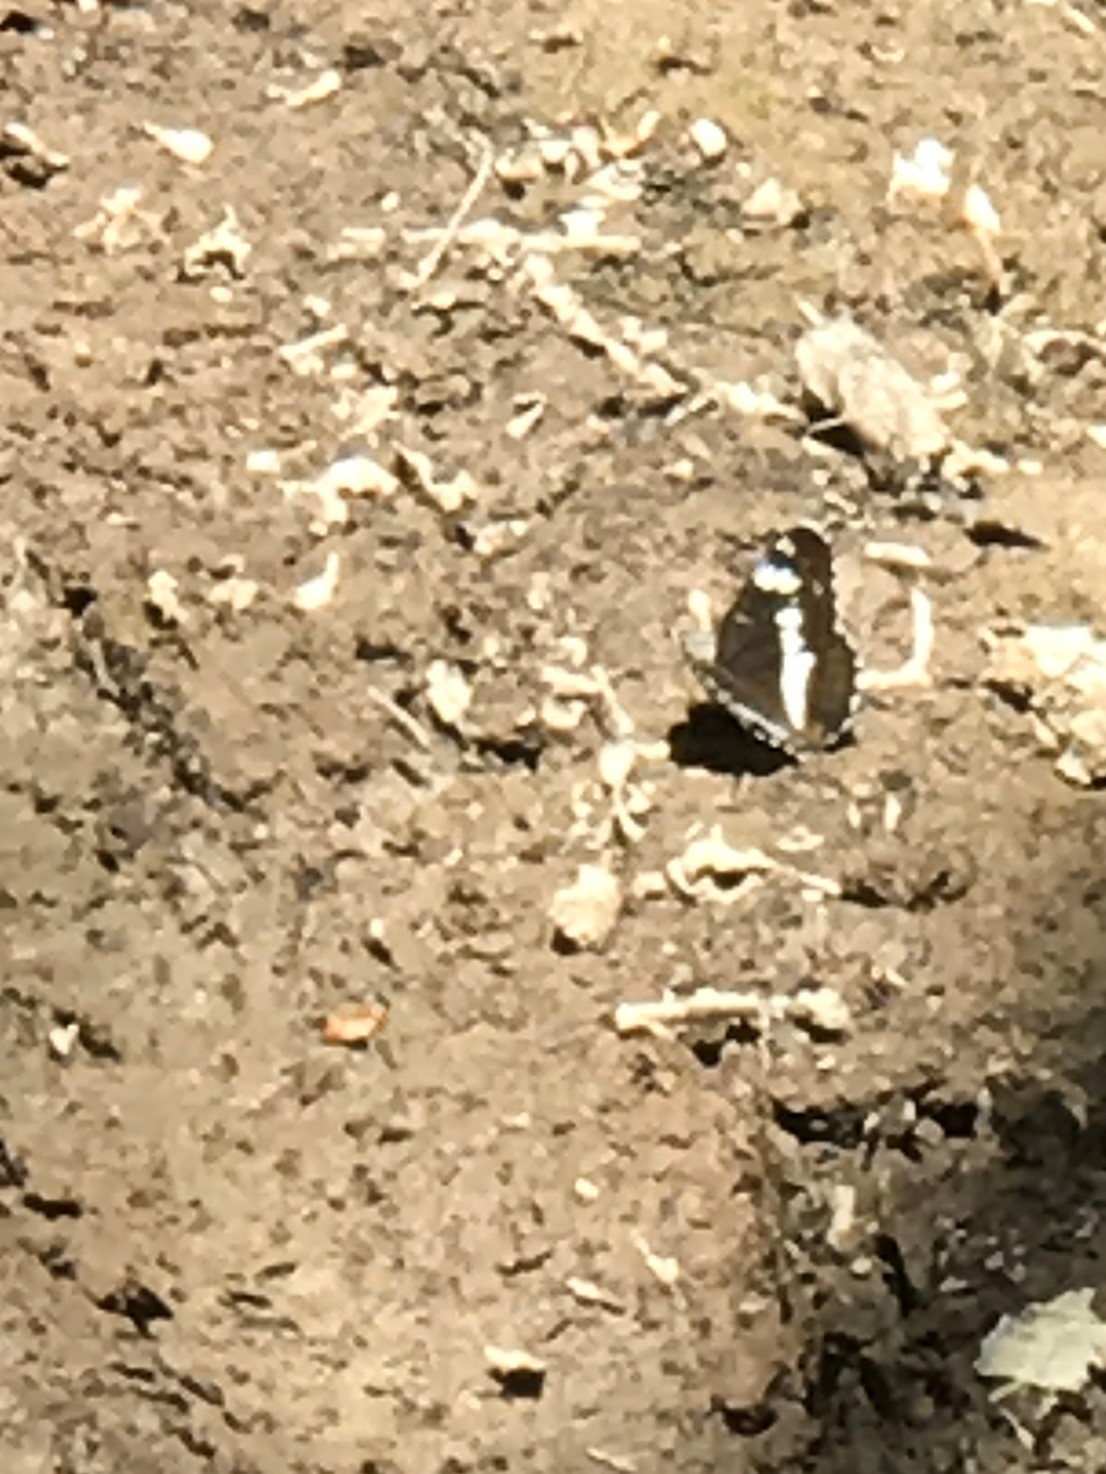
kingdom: Animalia
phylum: Arthropoda
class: Insecta
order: Lepidoptera
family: Nymphalidae
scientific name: Nymphalidae
